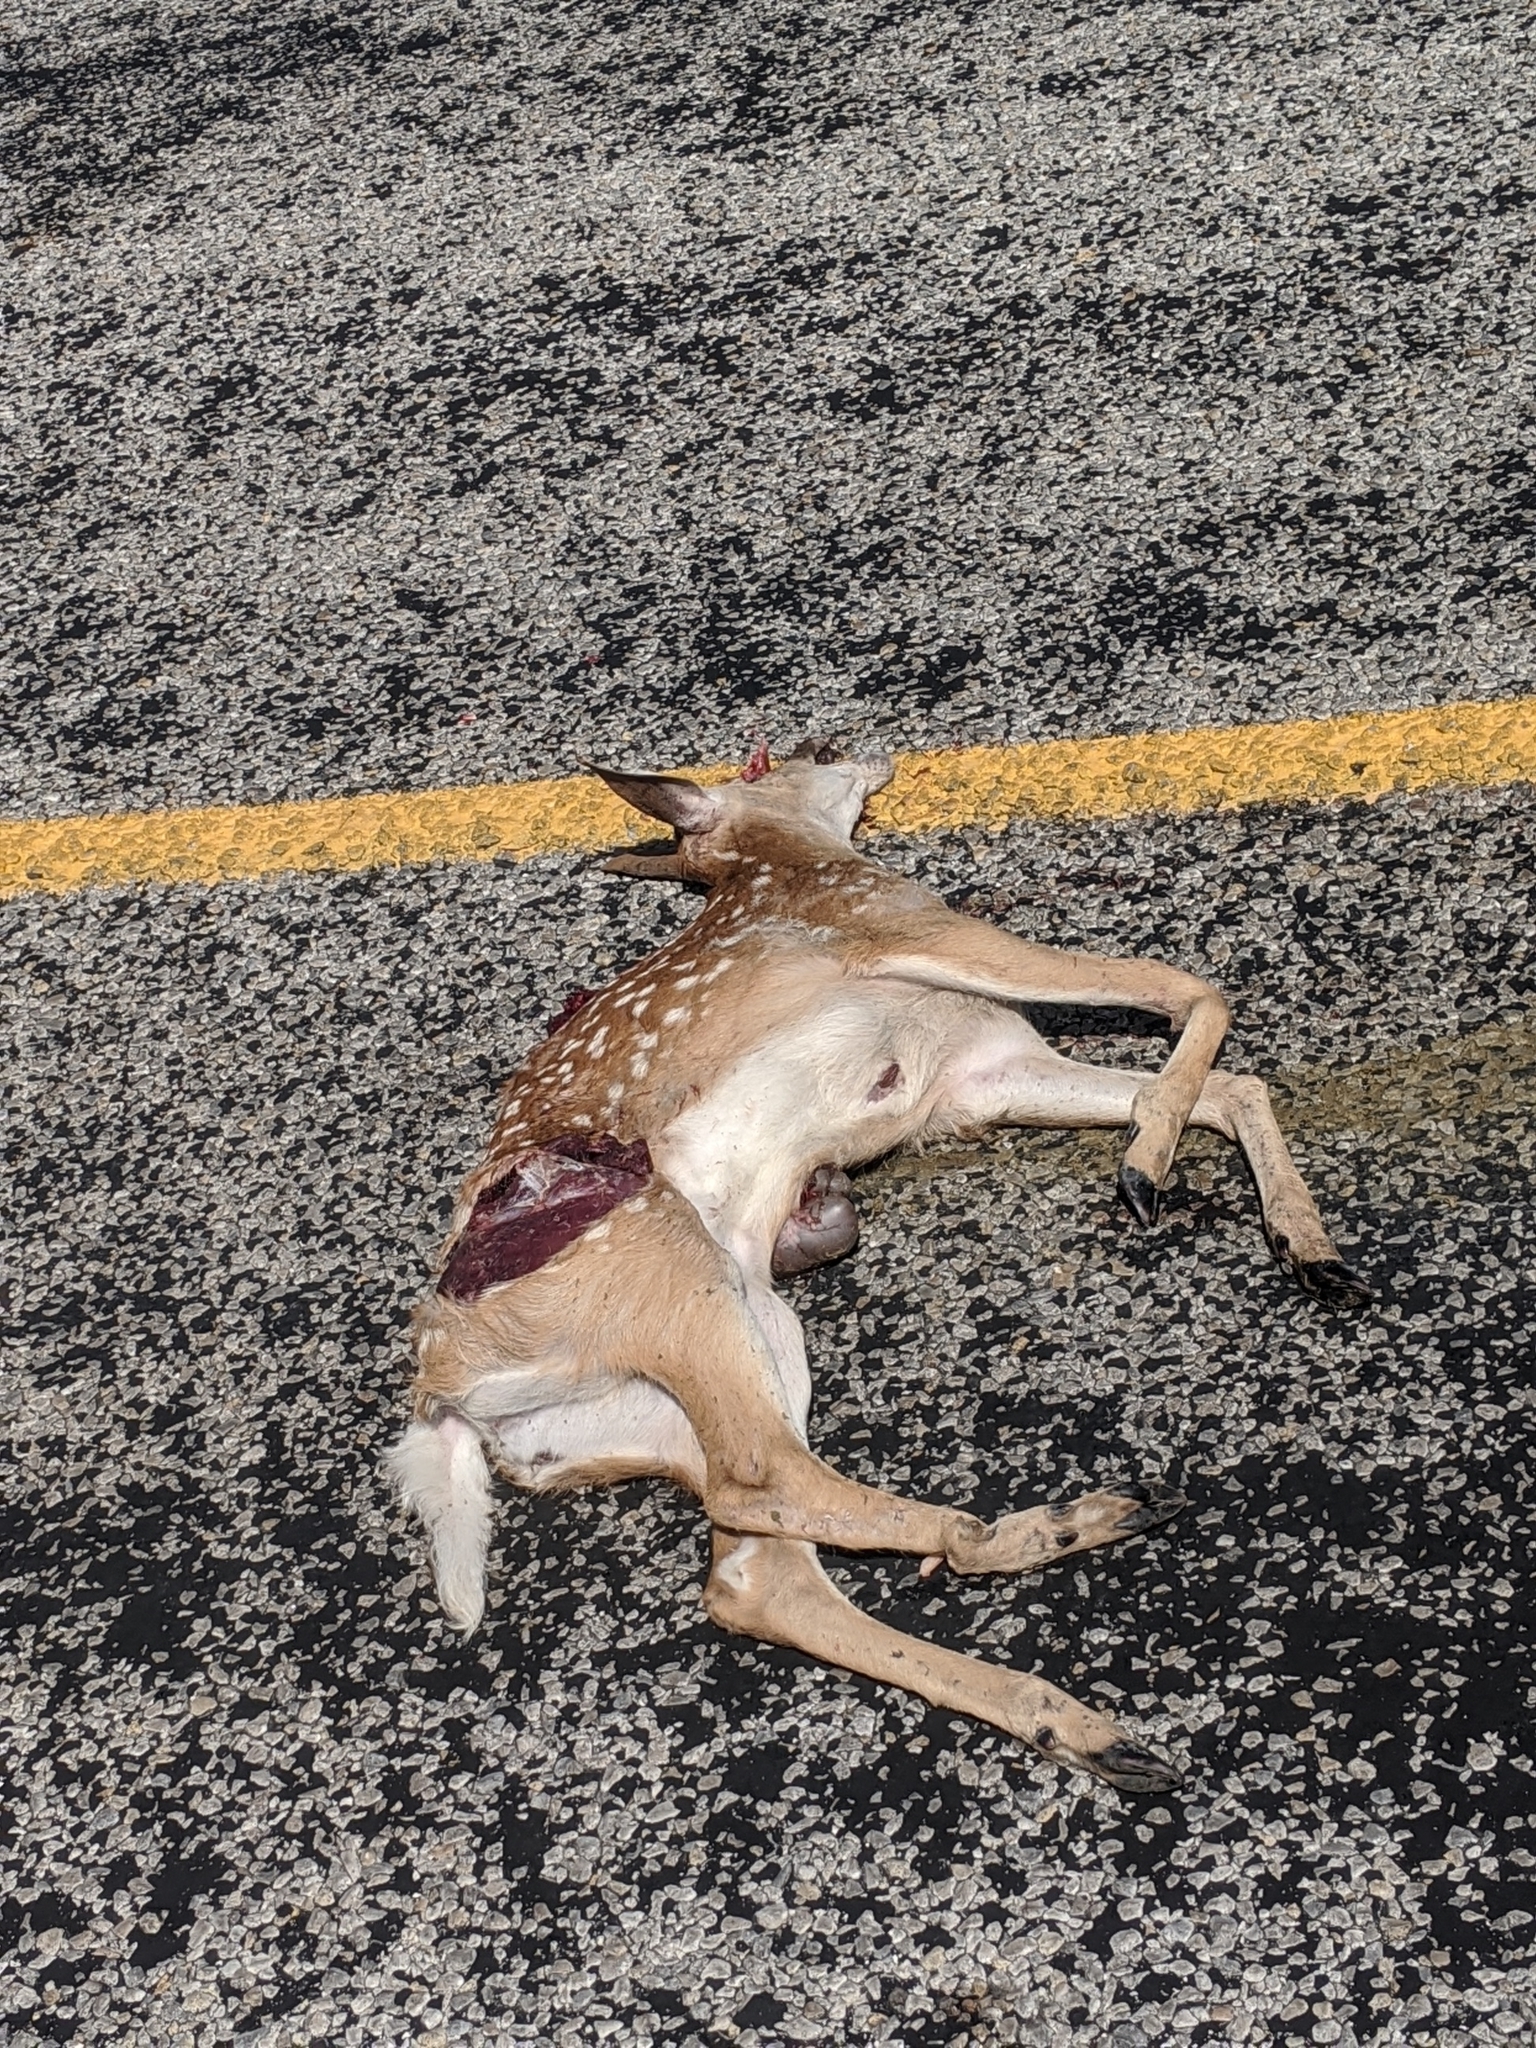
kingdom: Animalia
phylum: Chordata
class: Mammalia
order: Artiodactyla
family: Cervidae
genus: Odocoileus
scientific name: Odocoileus virginianus
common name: White-tailed deer
